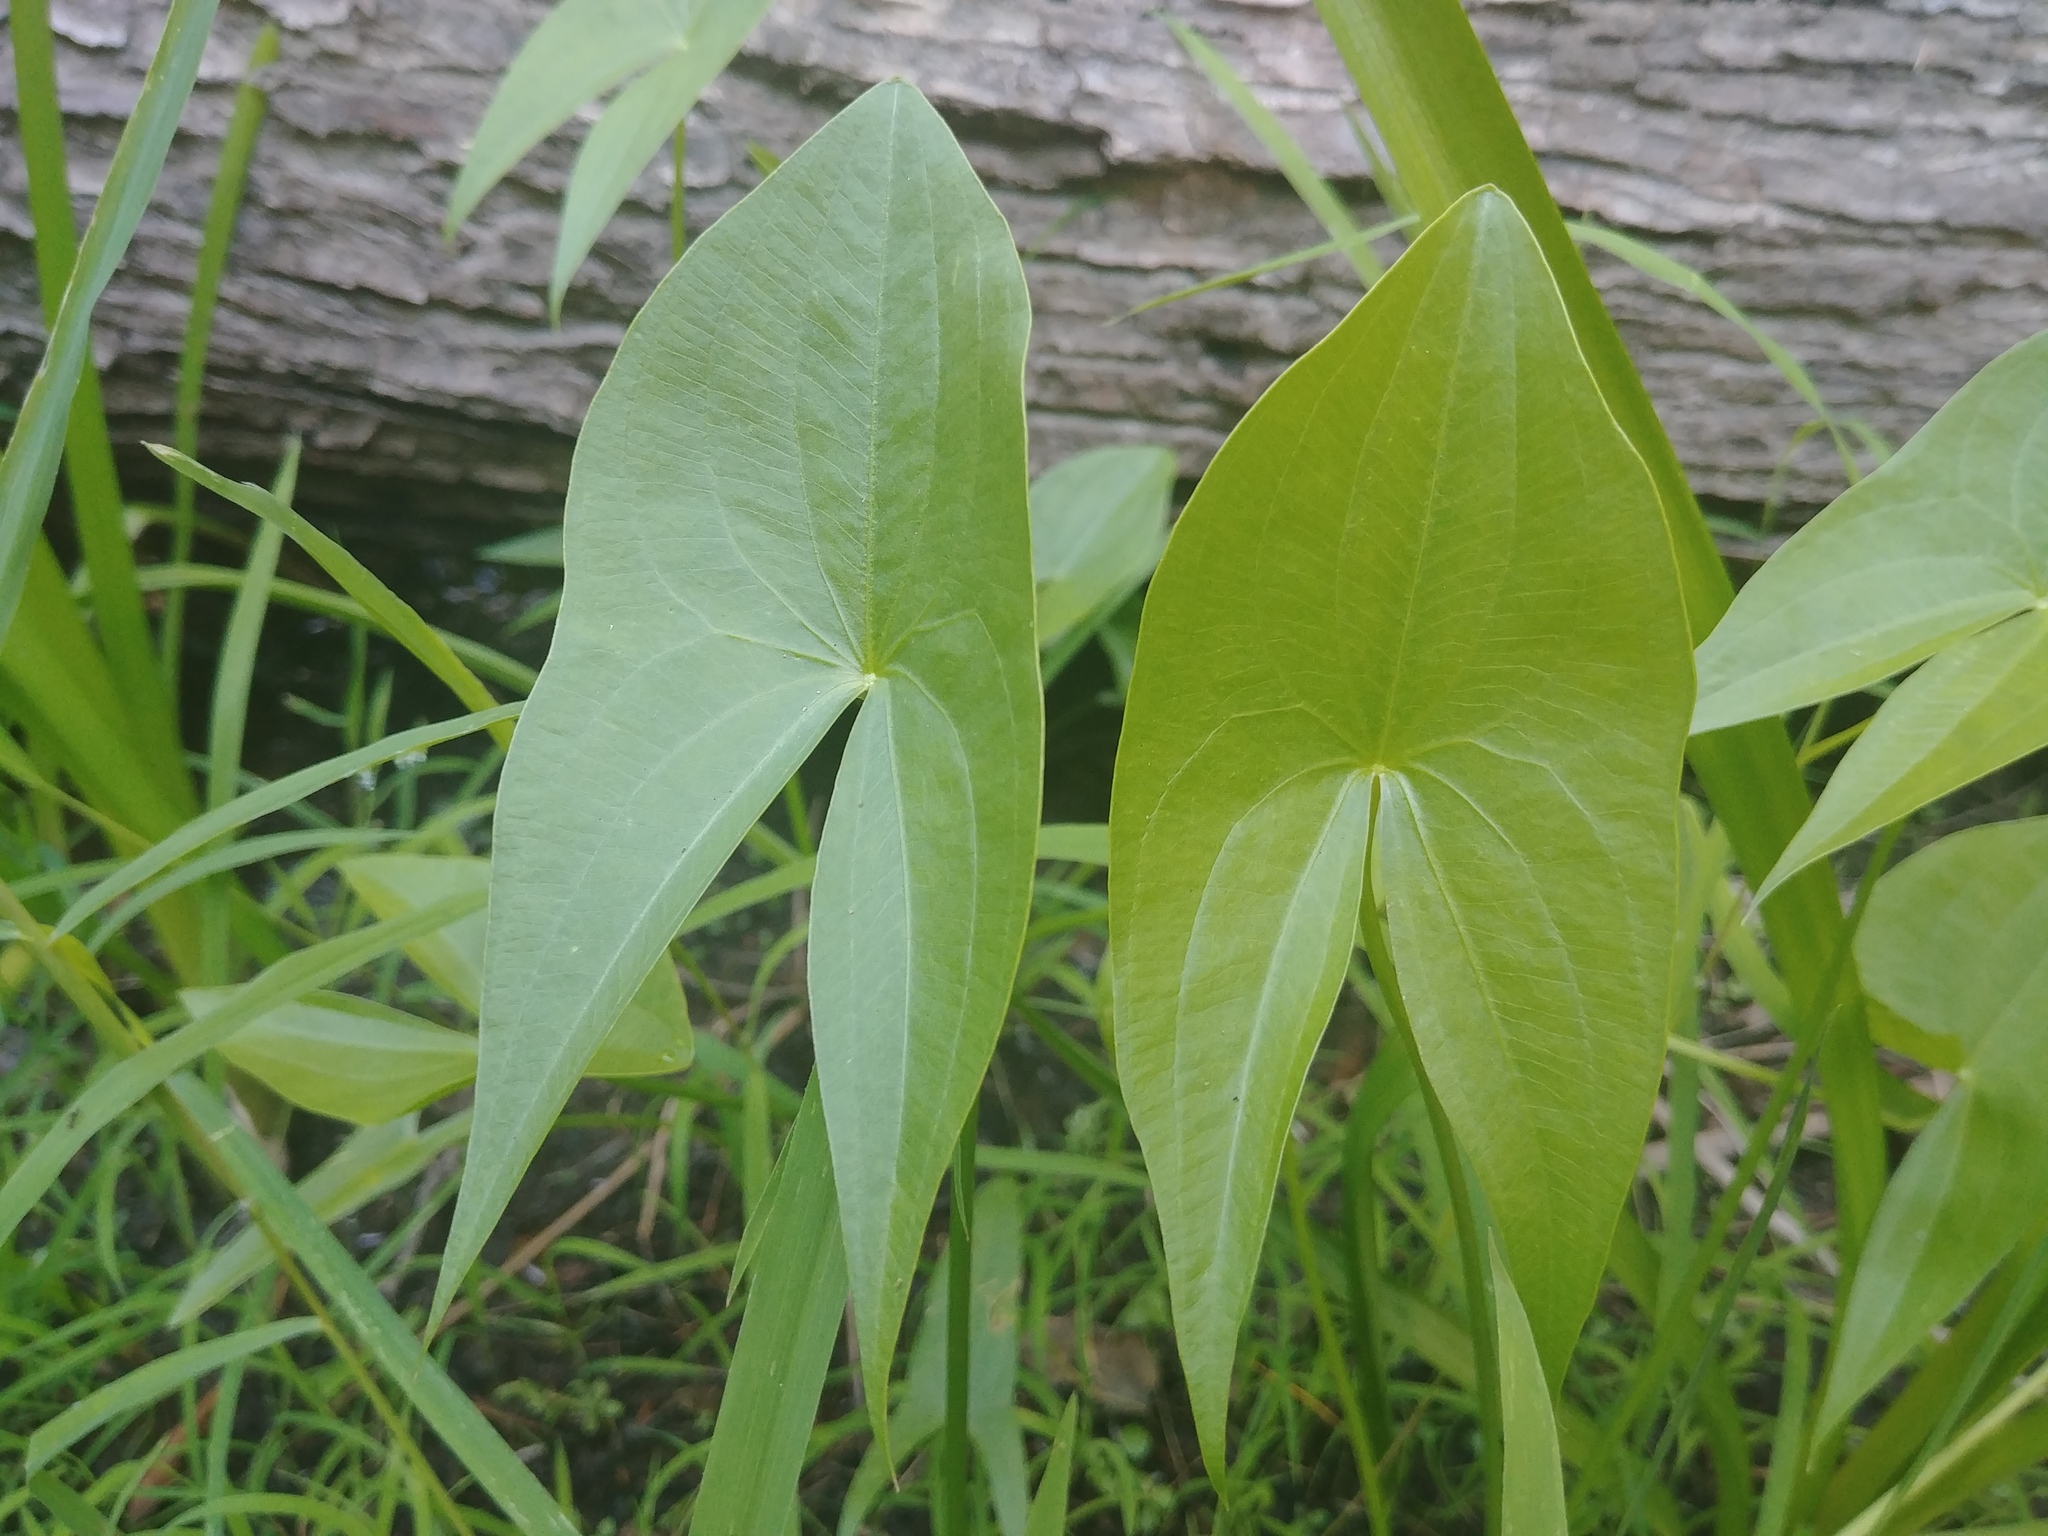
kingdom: Plantae
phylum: Tracheophyta
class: Liliopsida
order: Alismatales
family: Alismataceae
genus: Sagittaria
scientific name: Sagittaria latifolia
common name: Duck-potato
